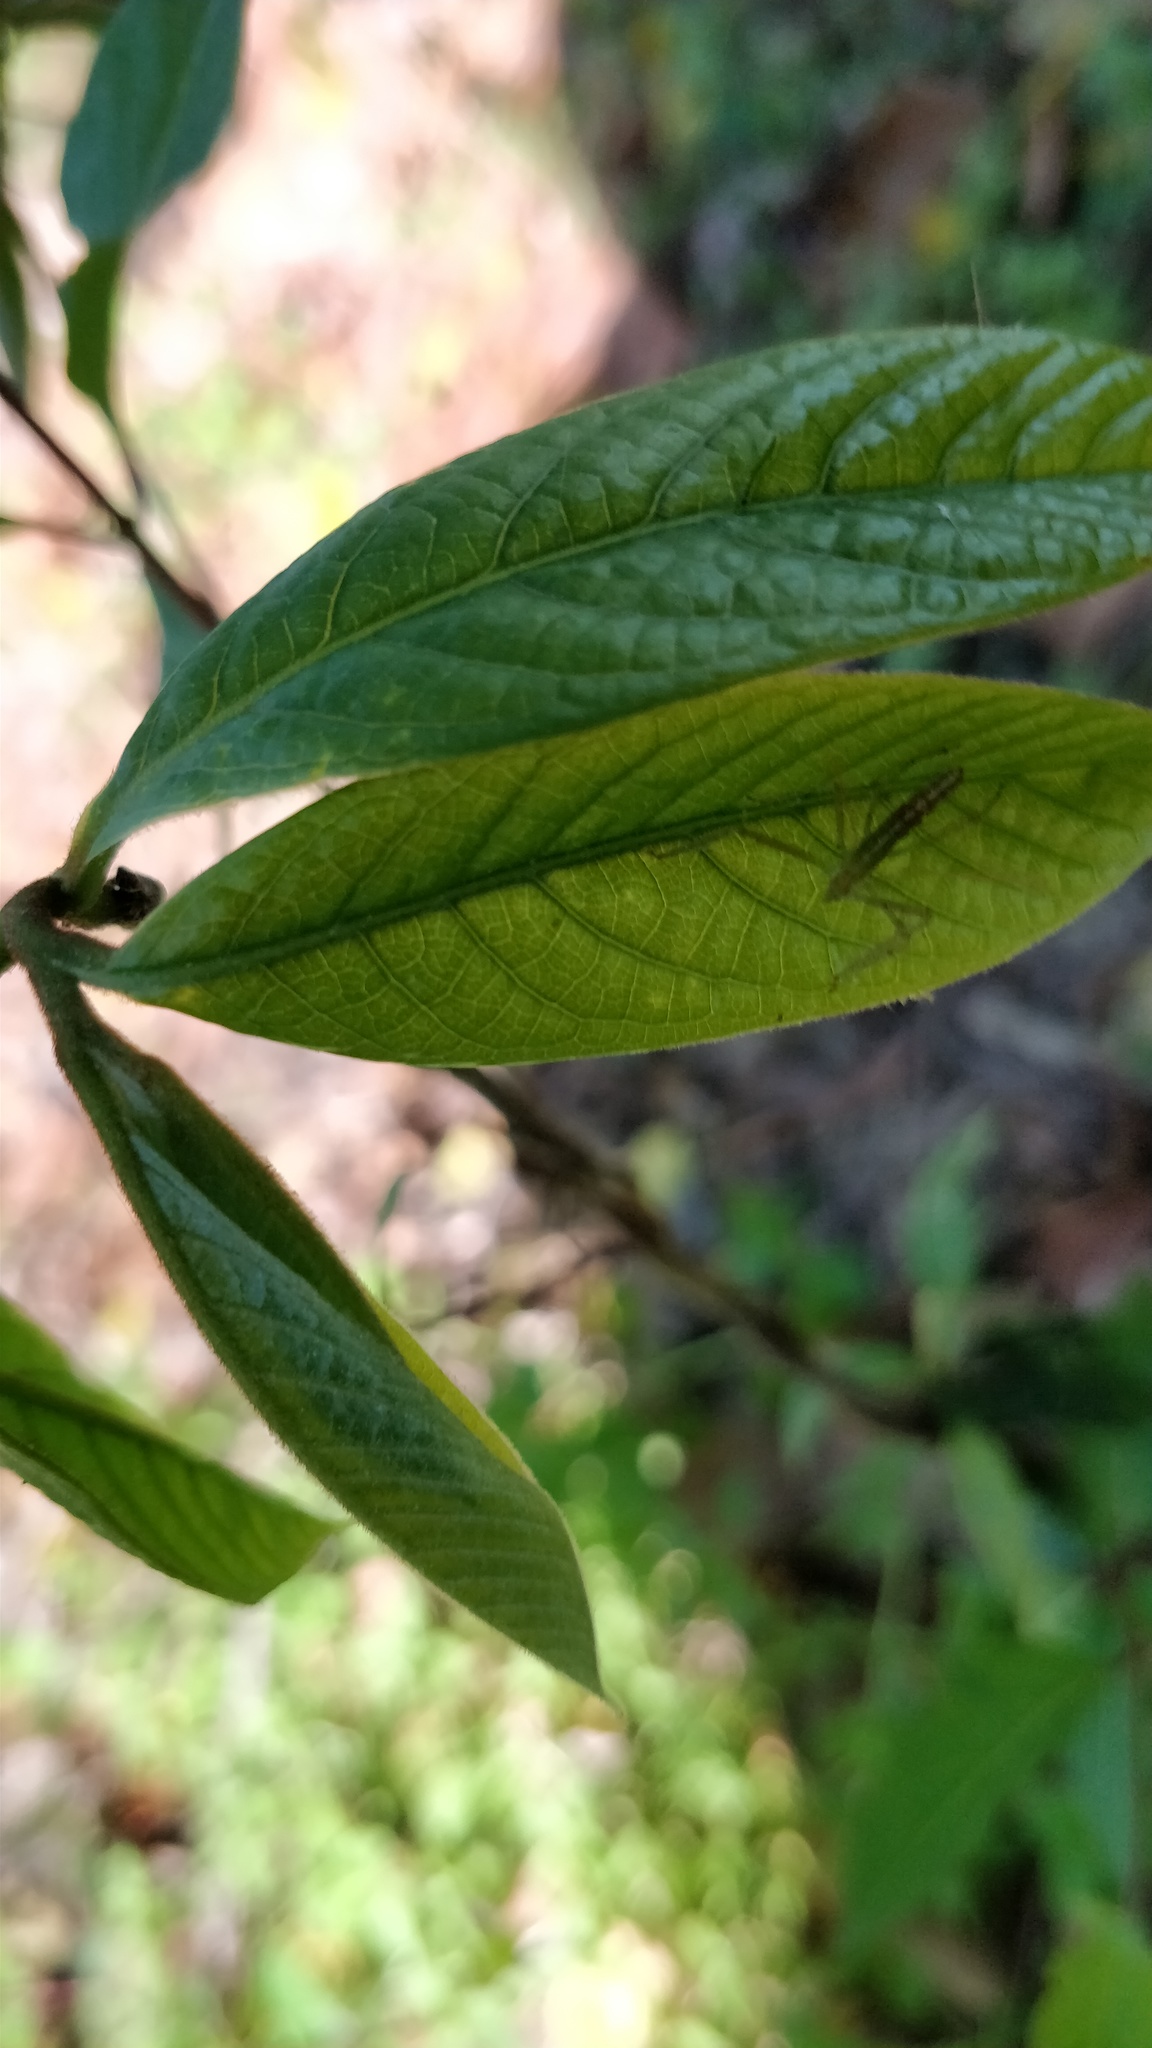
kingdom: Animalia
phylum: Arthropoda
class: Insecta
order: Hemiptera
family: Reduviidae
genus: Zelus
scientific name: Zelus luridus
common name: Pale green assassin bug
